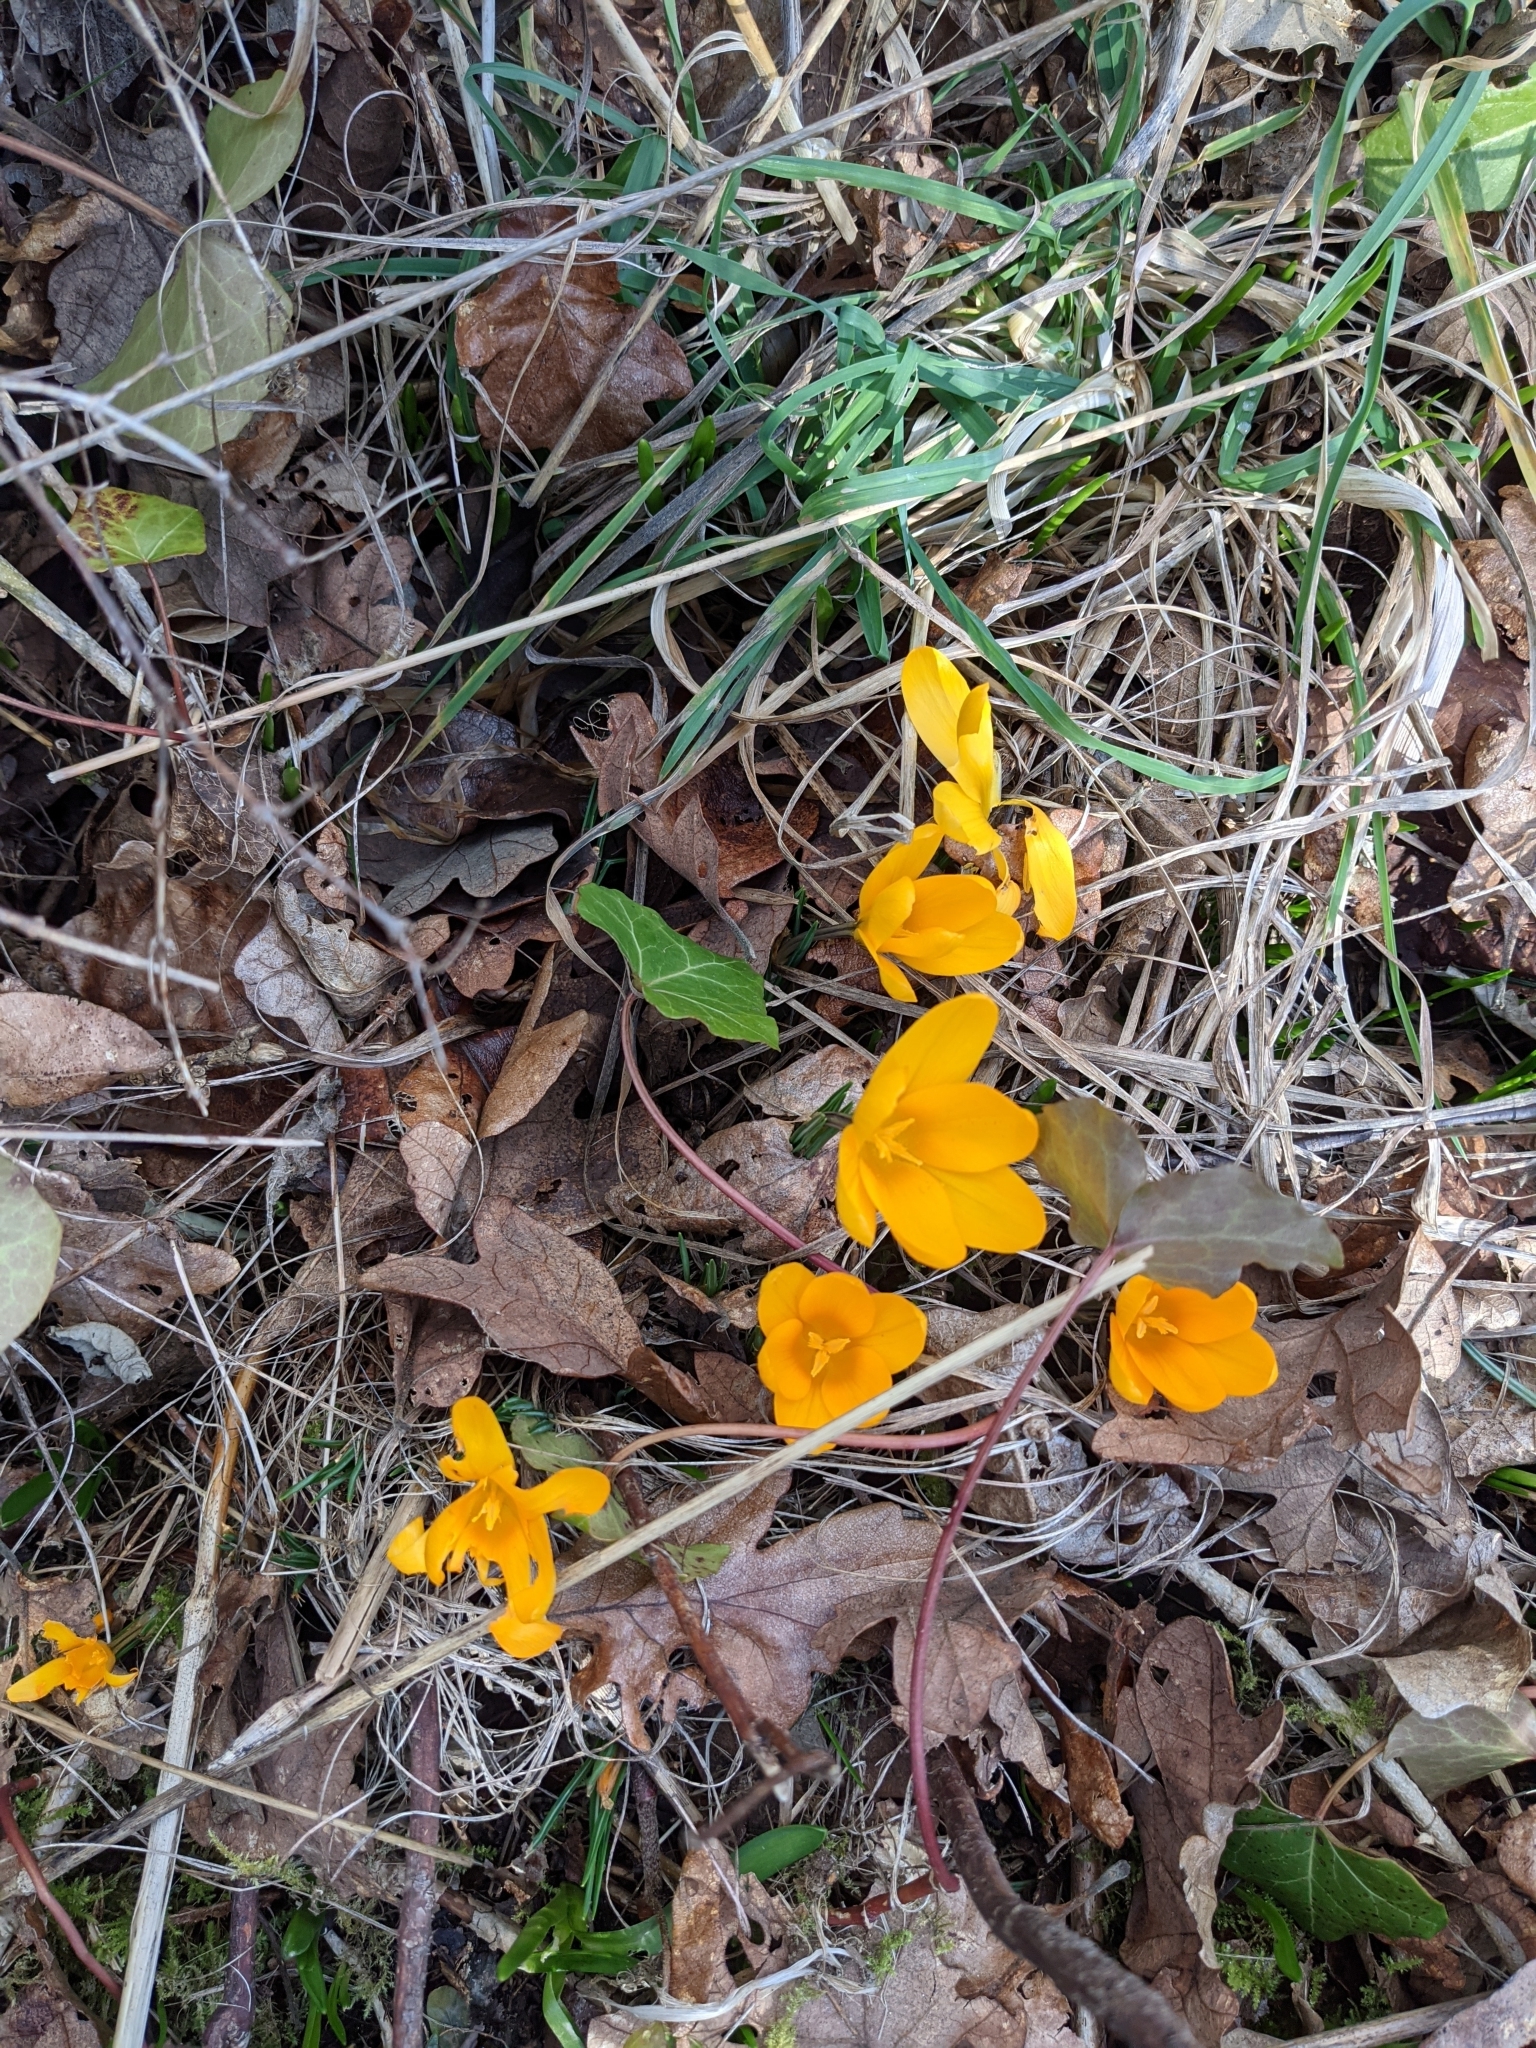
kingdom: Plantae
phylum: Tracheophyta
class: Liliopsida
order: Asparagales
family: Iridaceae
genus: Crocus
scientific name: Crocus luteus
